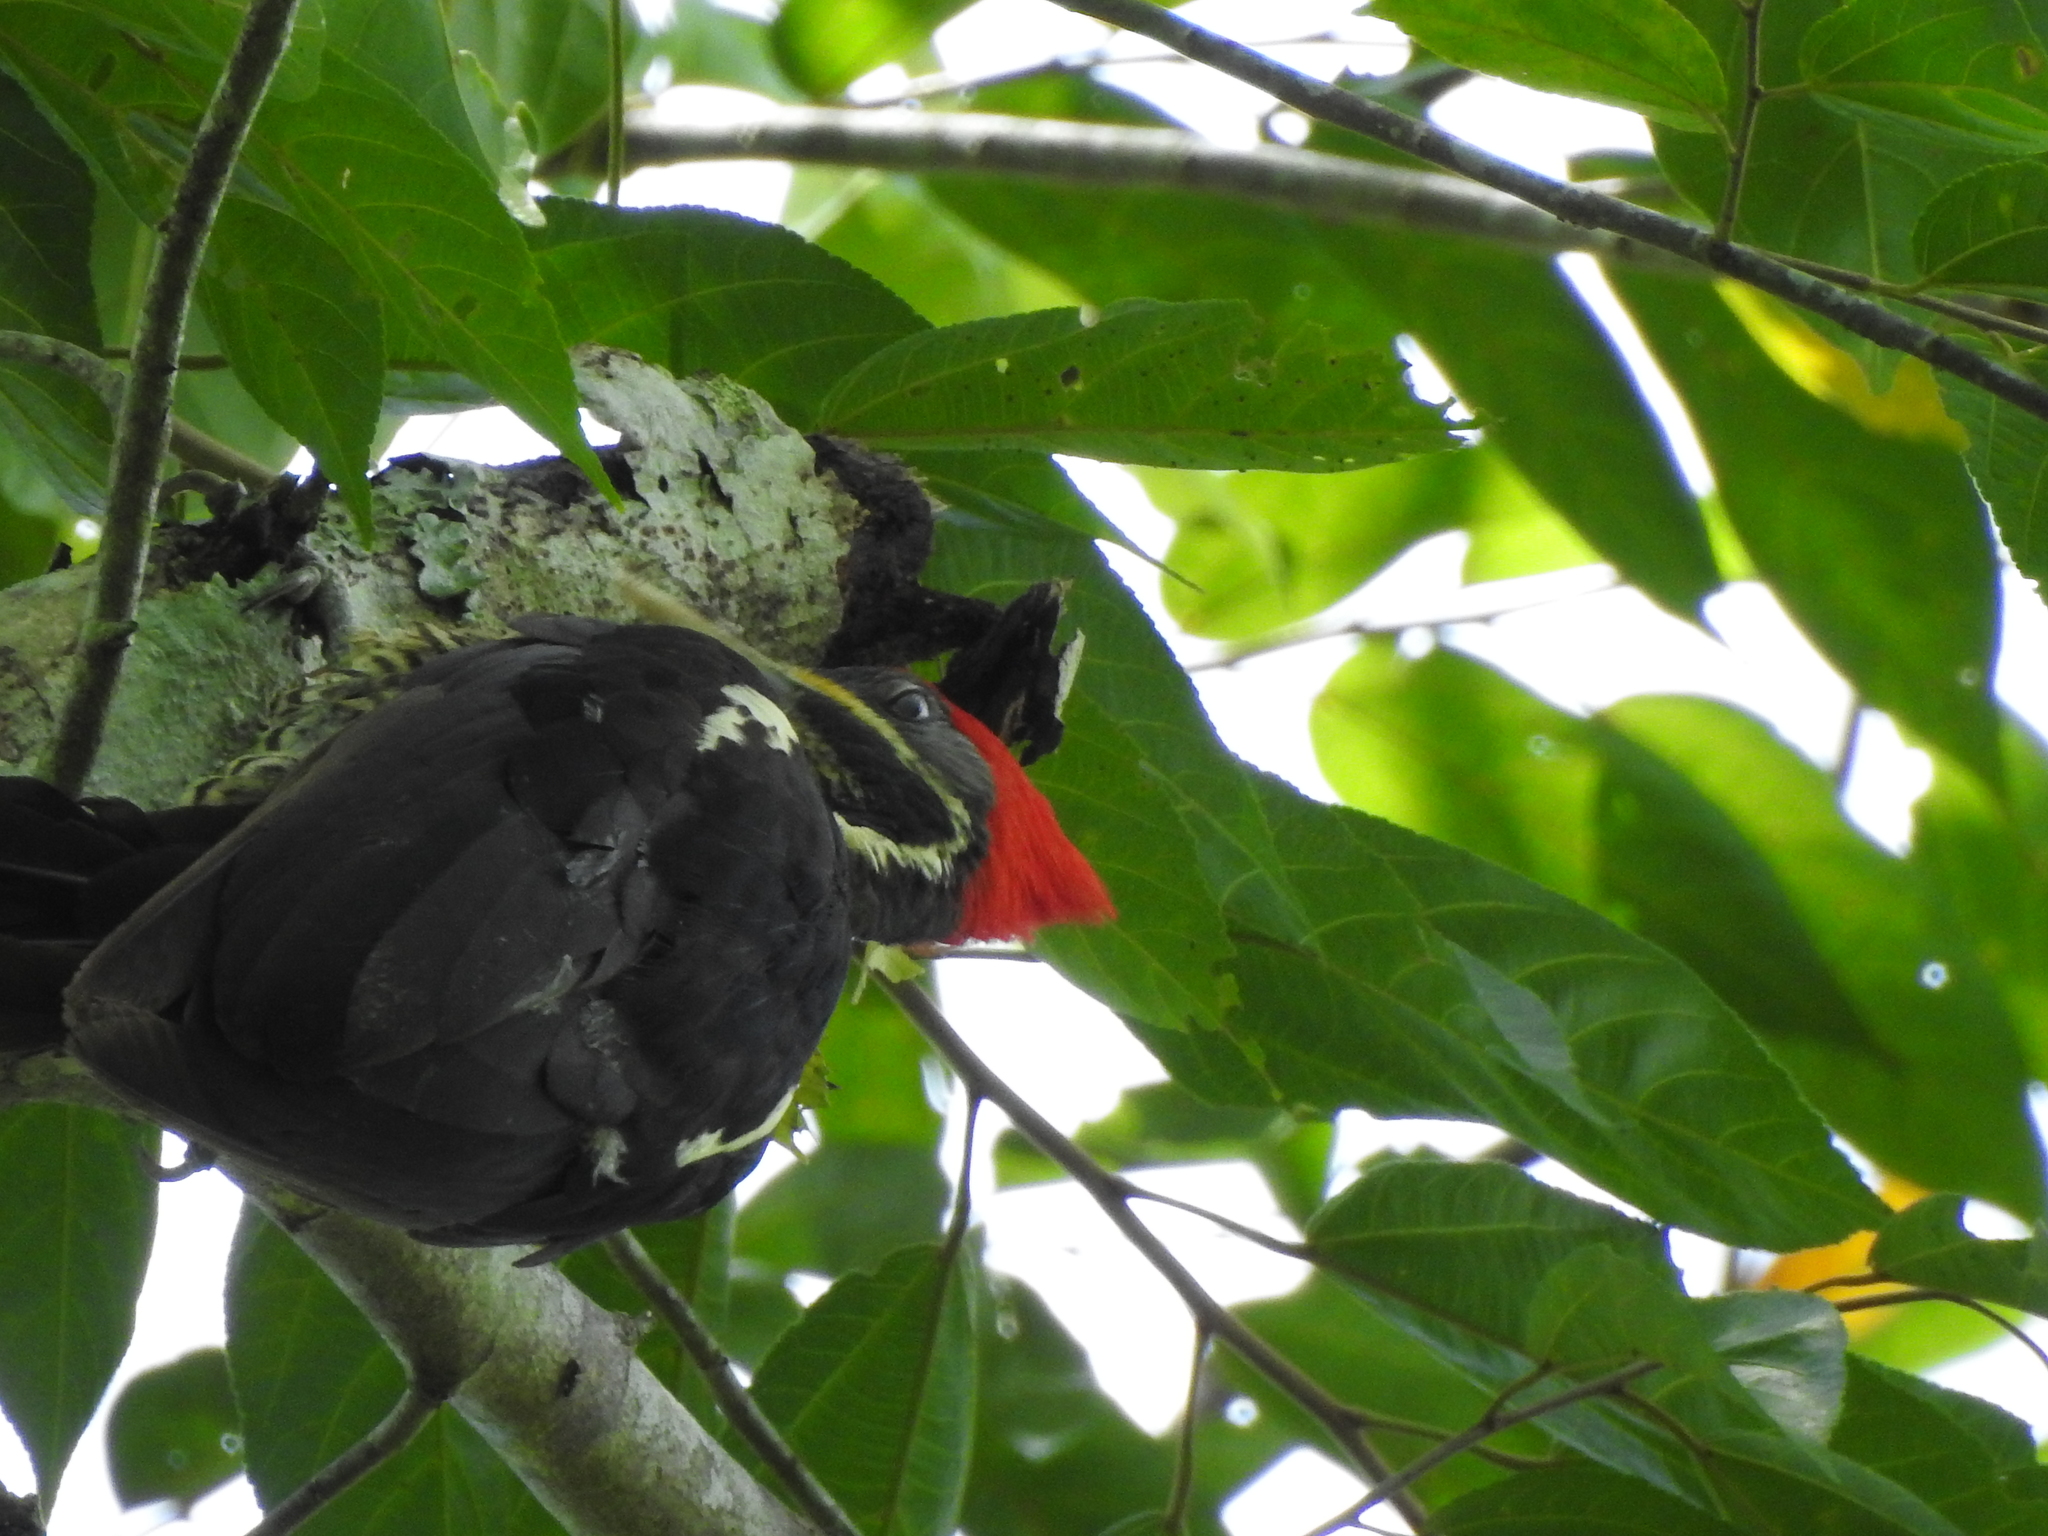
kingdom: Animalia
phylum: Chordata
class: Aves
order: Piciformes
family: Picidae
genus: Dryocopus
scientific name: Dryocopus lineatus
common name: Lineated woodpecker
